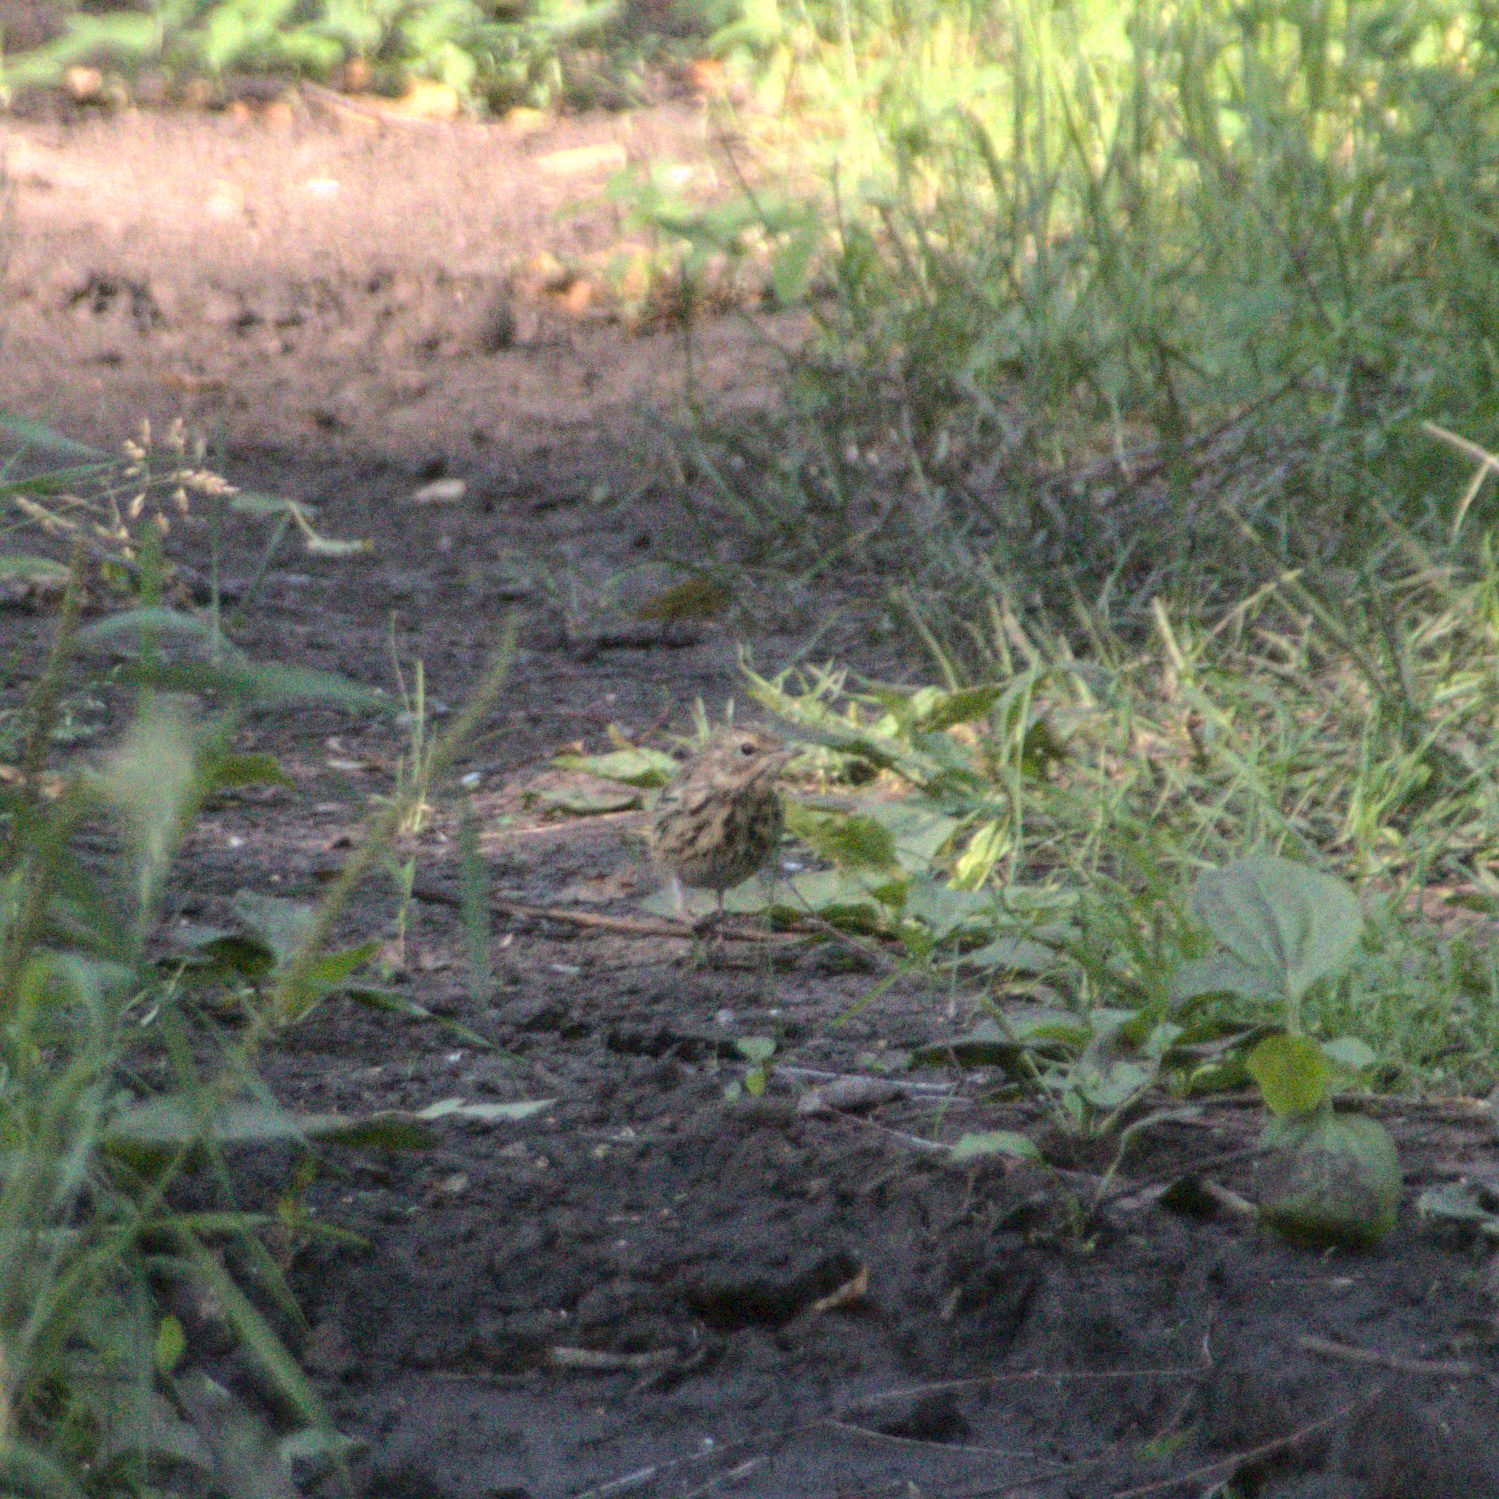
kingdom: Animalia
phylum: Chordata
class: Aves
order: Passeriformes
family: Motacillidae
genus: Anthus
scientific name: Anthus trivialis
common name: Tree pipit
